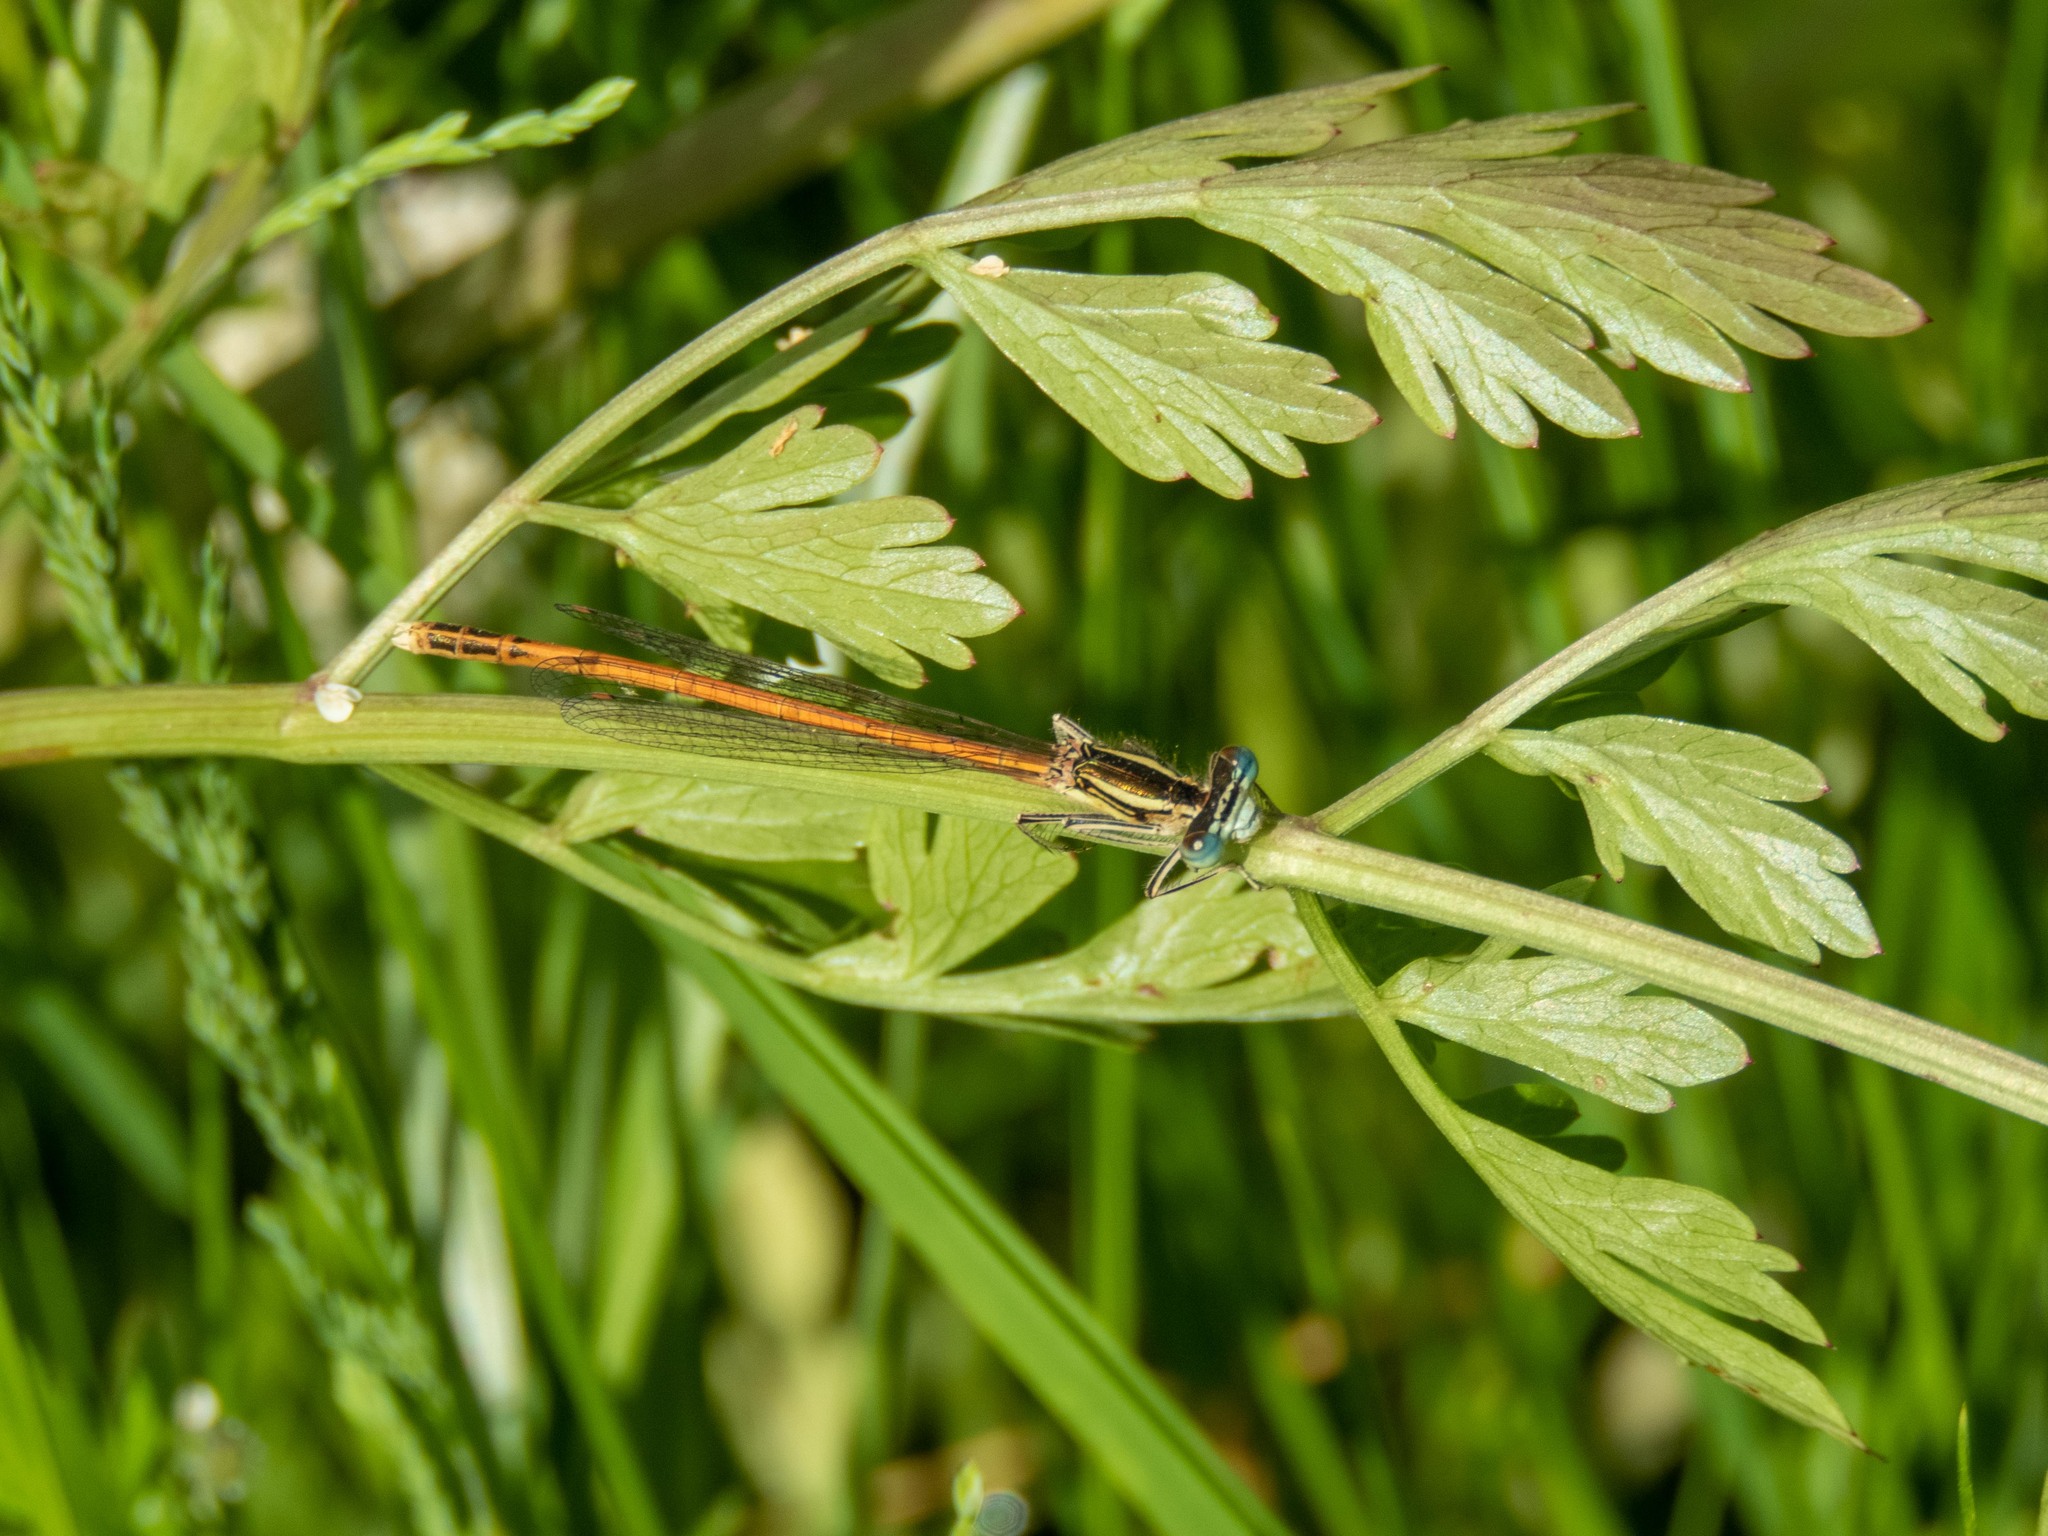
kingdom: Animalia
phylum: Arthropoda
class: Insecta
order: Odonata
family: Platycnemididae
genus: Platycnemis
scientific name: Platycnemis acutipennis
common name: Orange featherleg
